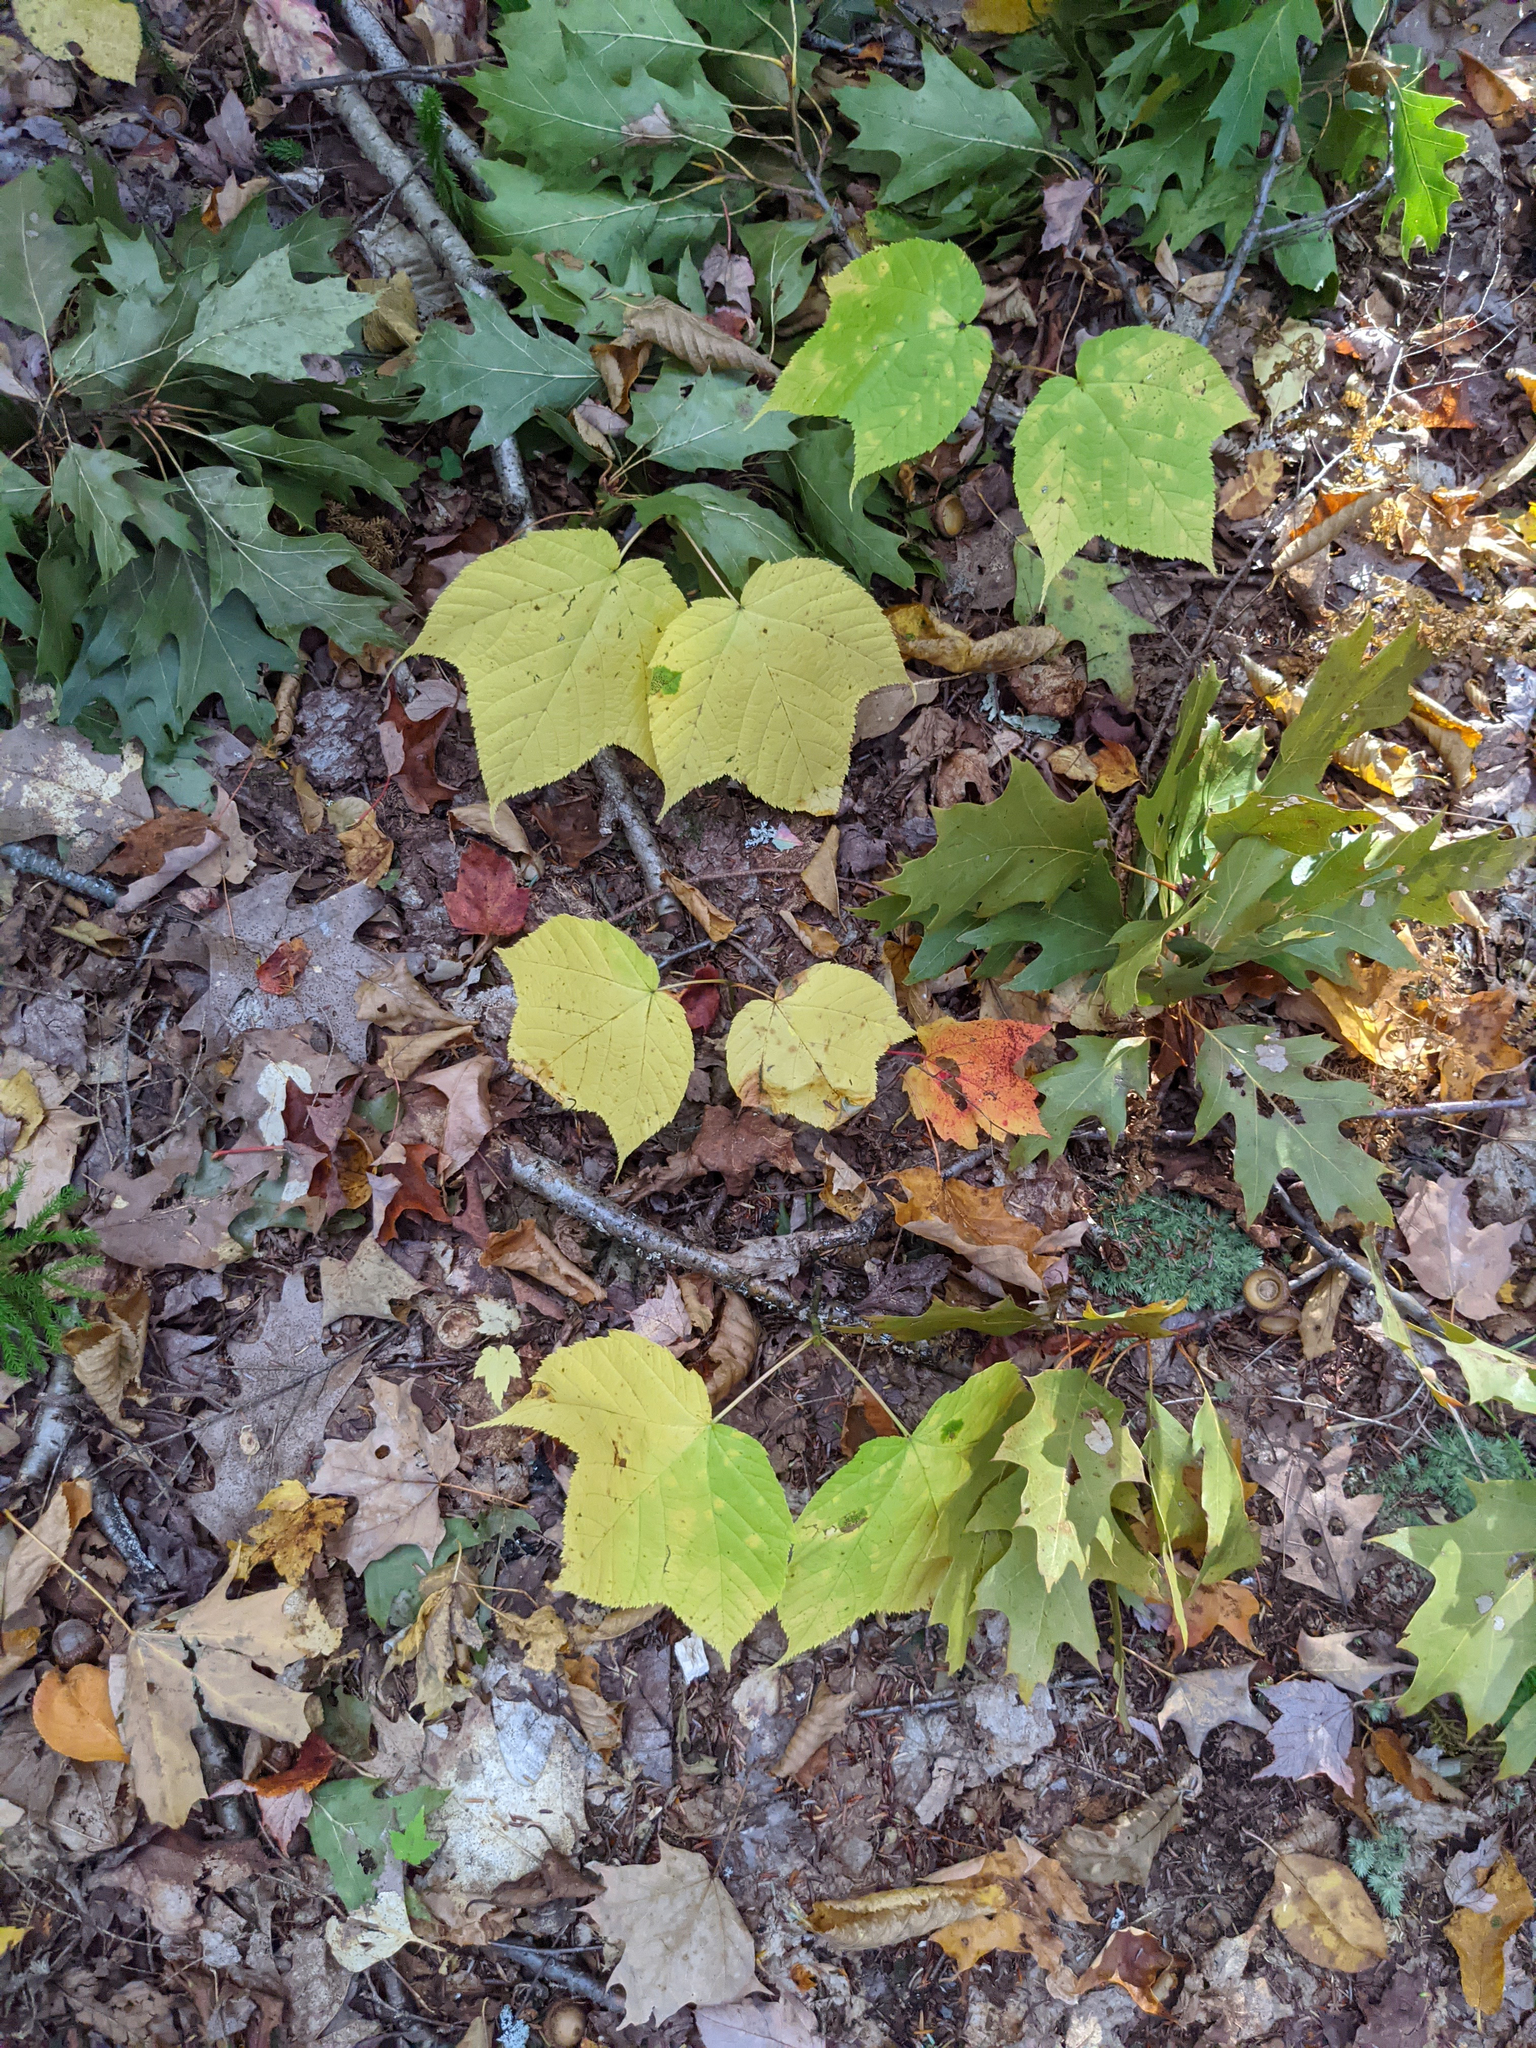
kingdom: Plantae
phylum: Tracheophyta
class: Magnoliopsida
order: Sapindales
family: Sapindaceae
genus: Acer
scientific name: Acer pensylvanicum
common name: Moosewood
